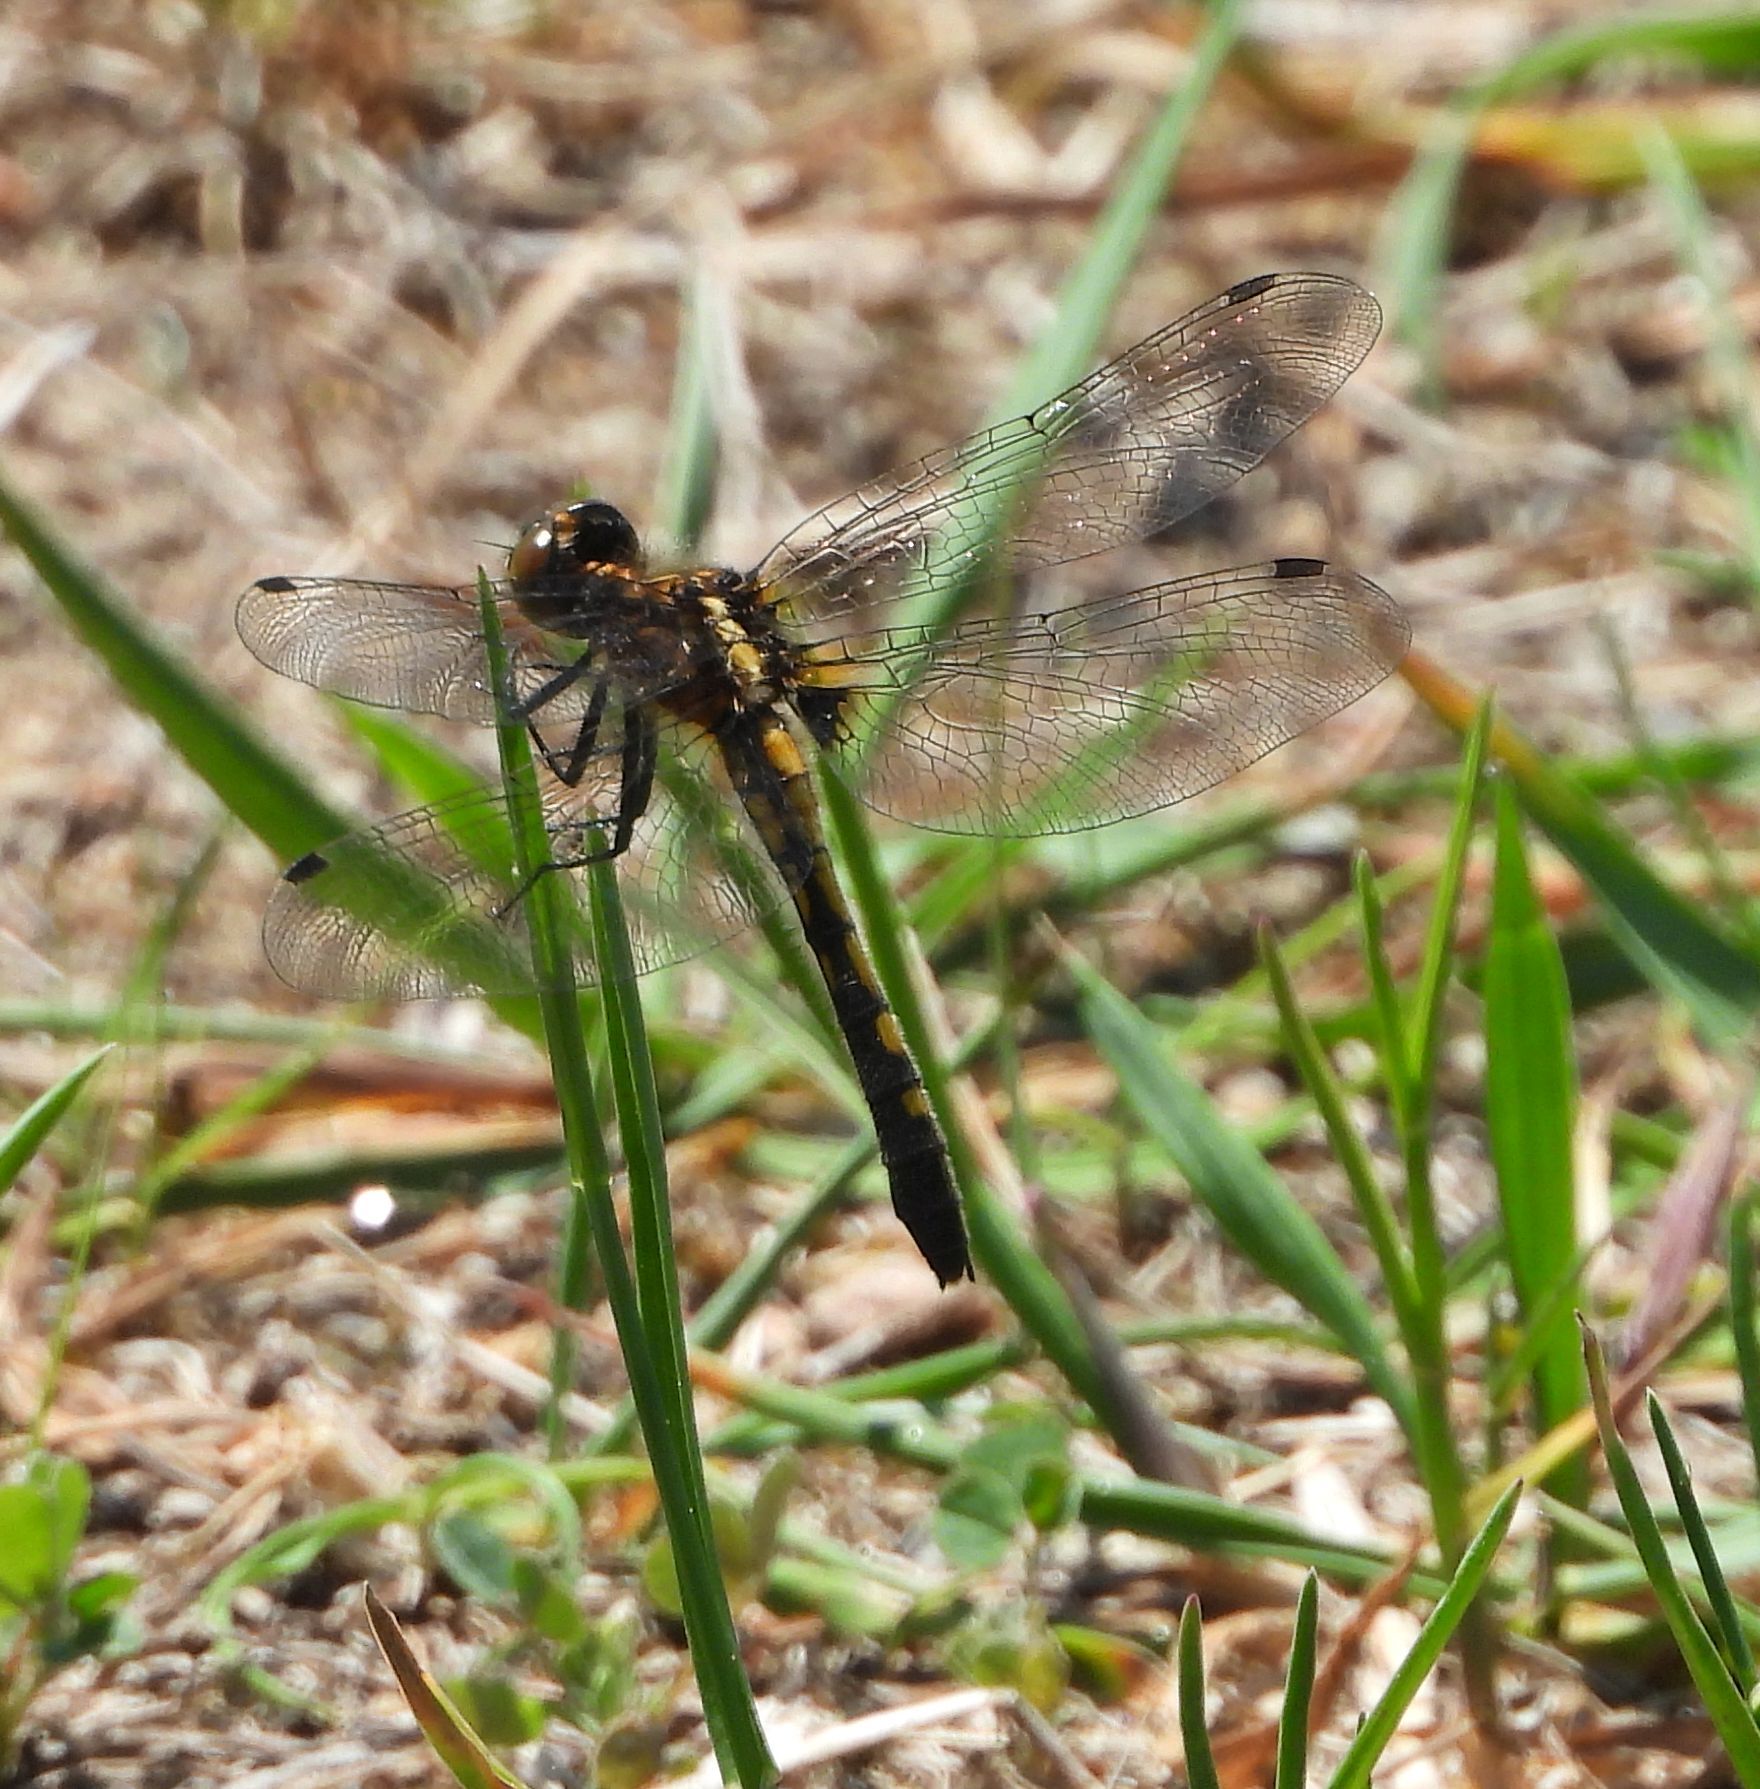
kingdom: Animalia
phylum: Arthropoda
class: Insecta
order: Odonata
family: Libellulidae
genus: Leucorrhinia
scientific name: Leucorrhinia intacta
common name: Dot-tailed whiteface
